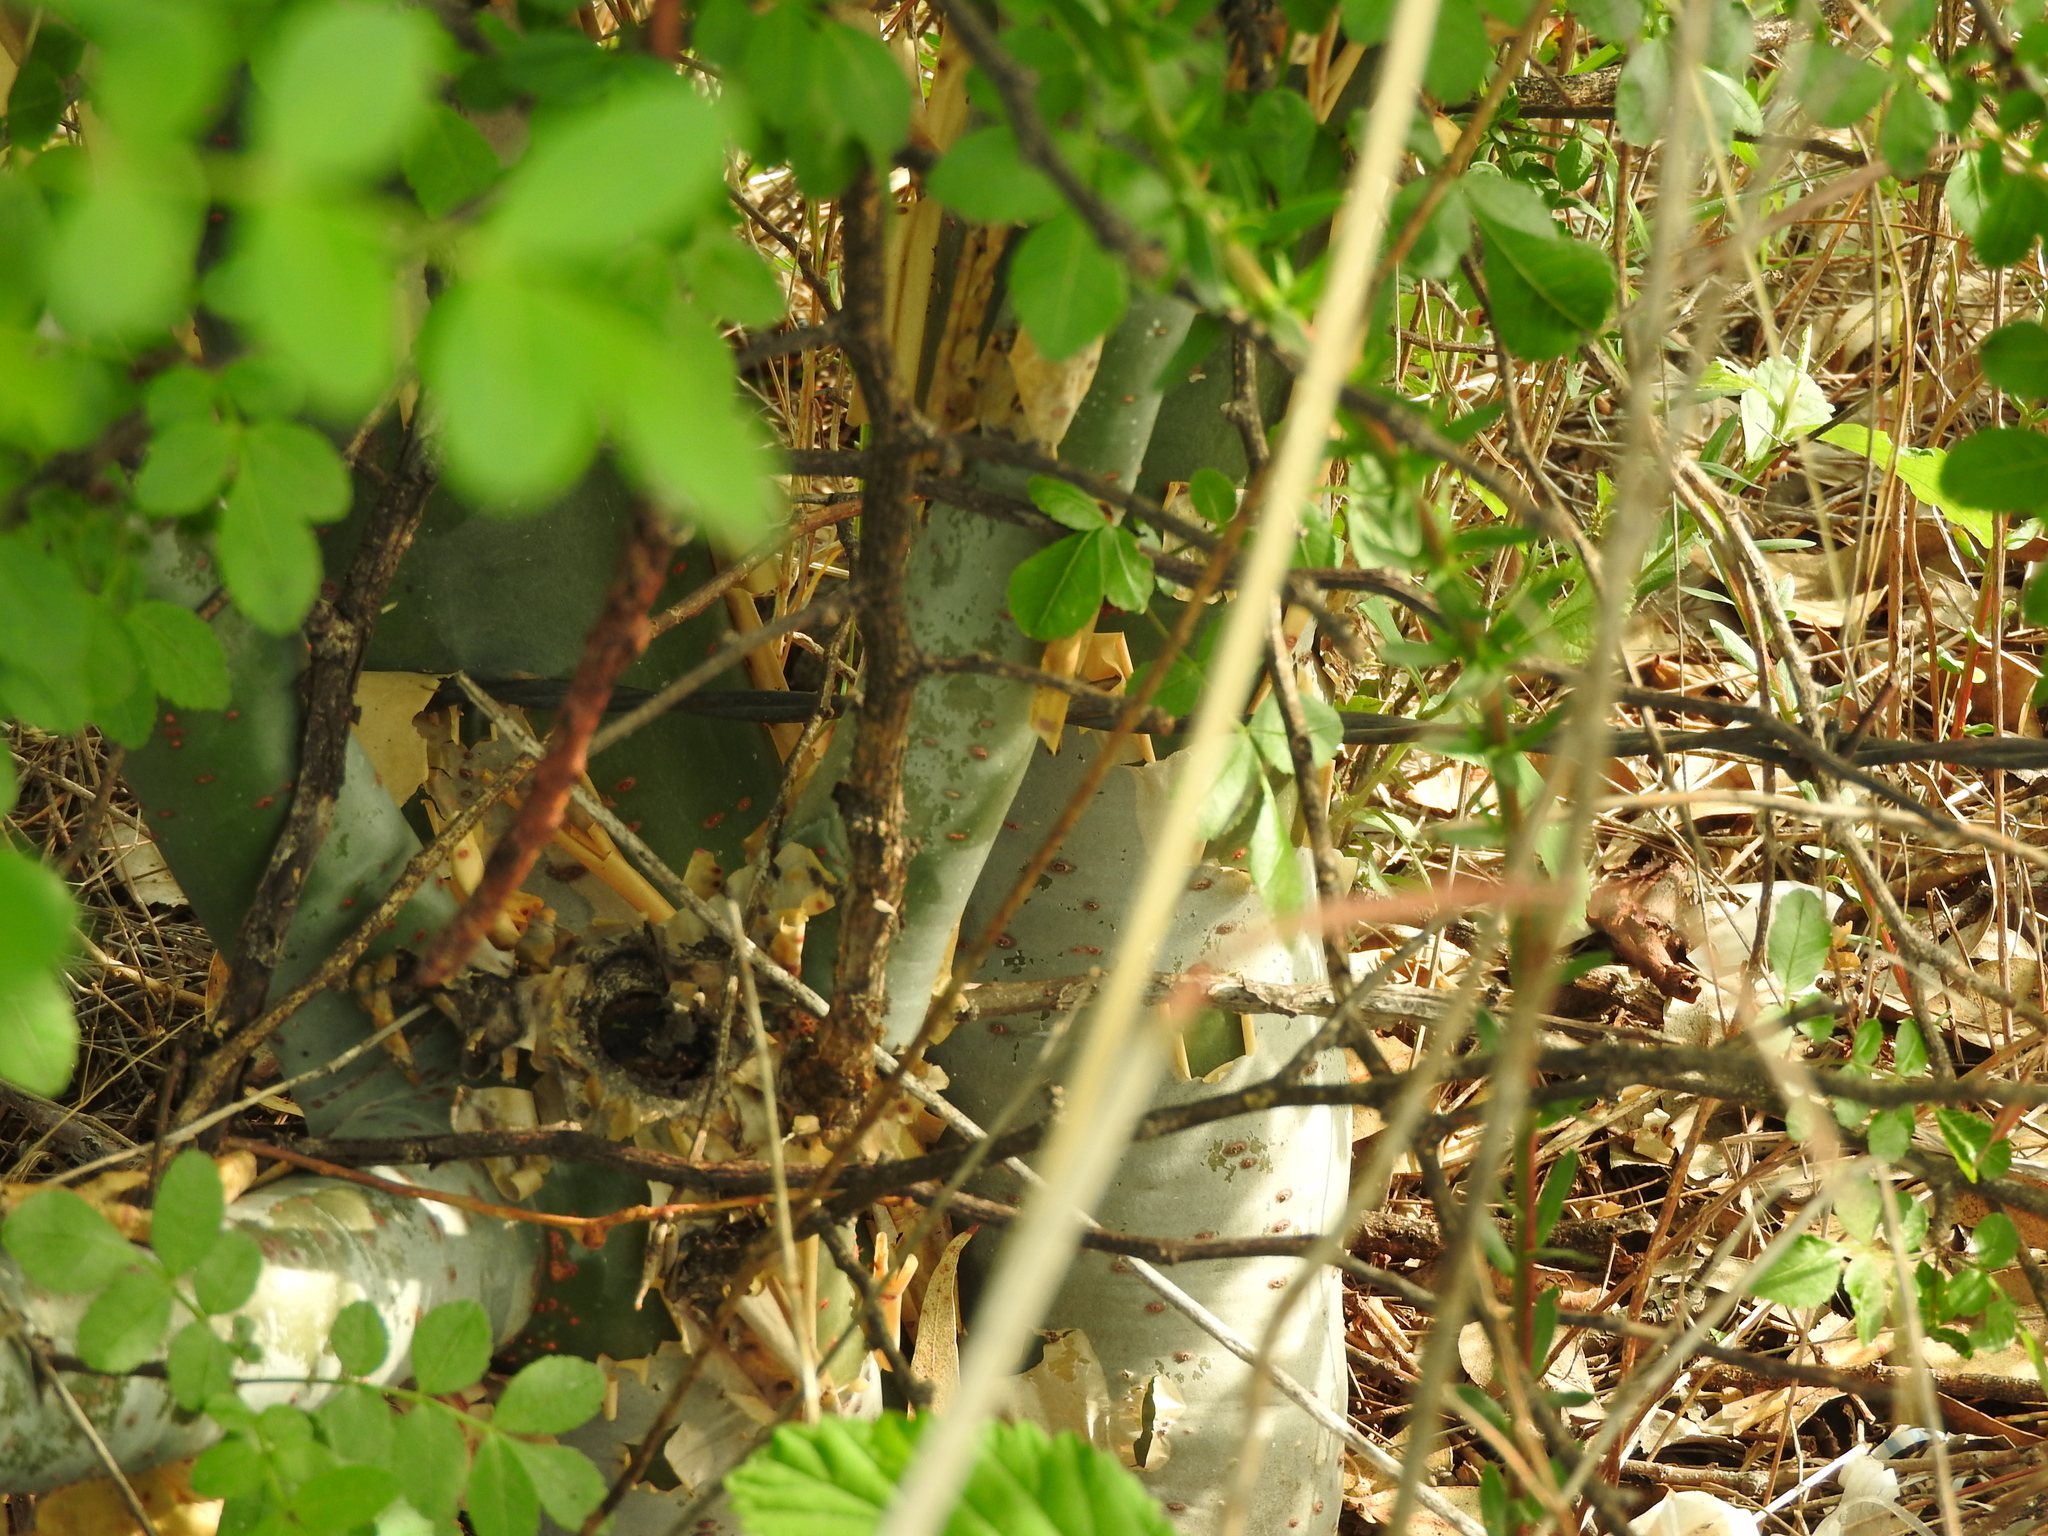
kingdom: Plantae
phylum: Tracheophyta
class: Magnoliopsida
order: Sapindales
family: Burseraceae
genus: Bursera
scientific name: Bursera fagaroides
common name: Elephant tree
